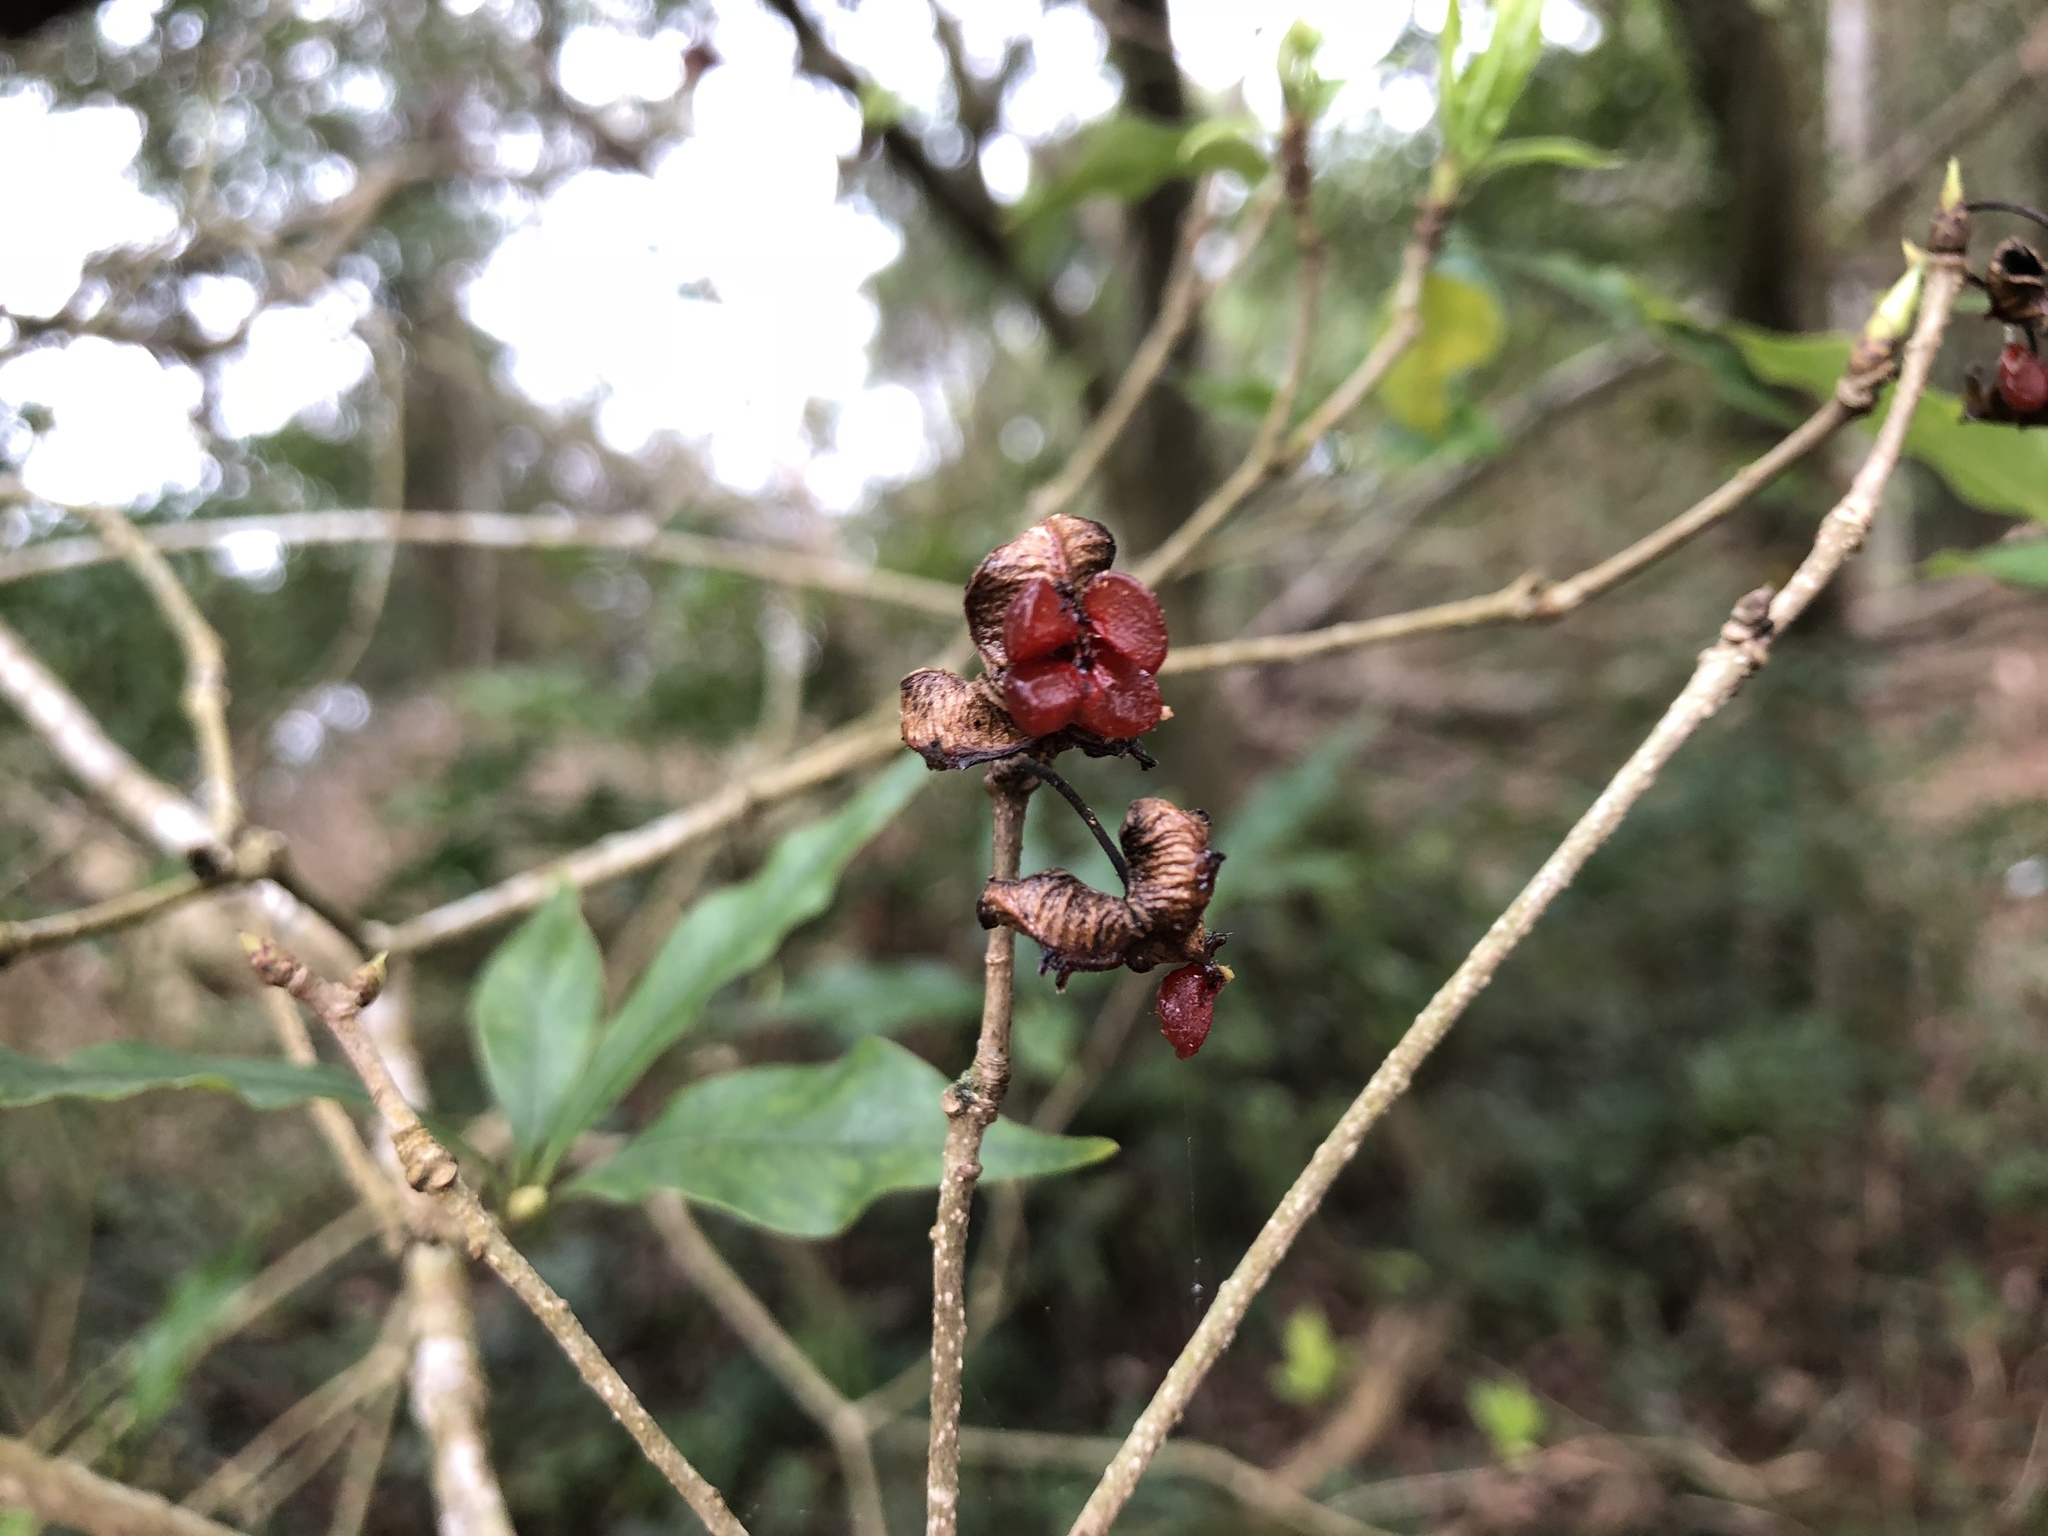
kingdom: Plantae
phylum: Tracheophyta
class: Magnoliopsida
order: Apiales
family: Pittosporaceae
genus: Pittosporum
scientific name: Pittosporum illicioides
